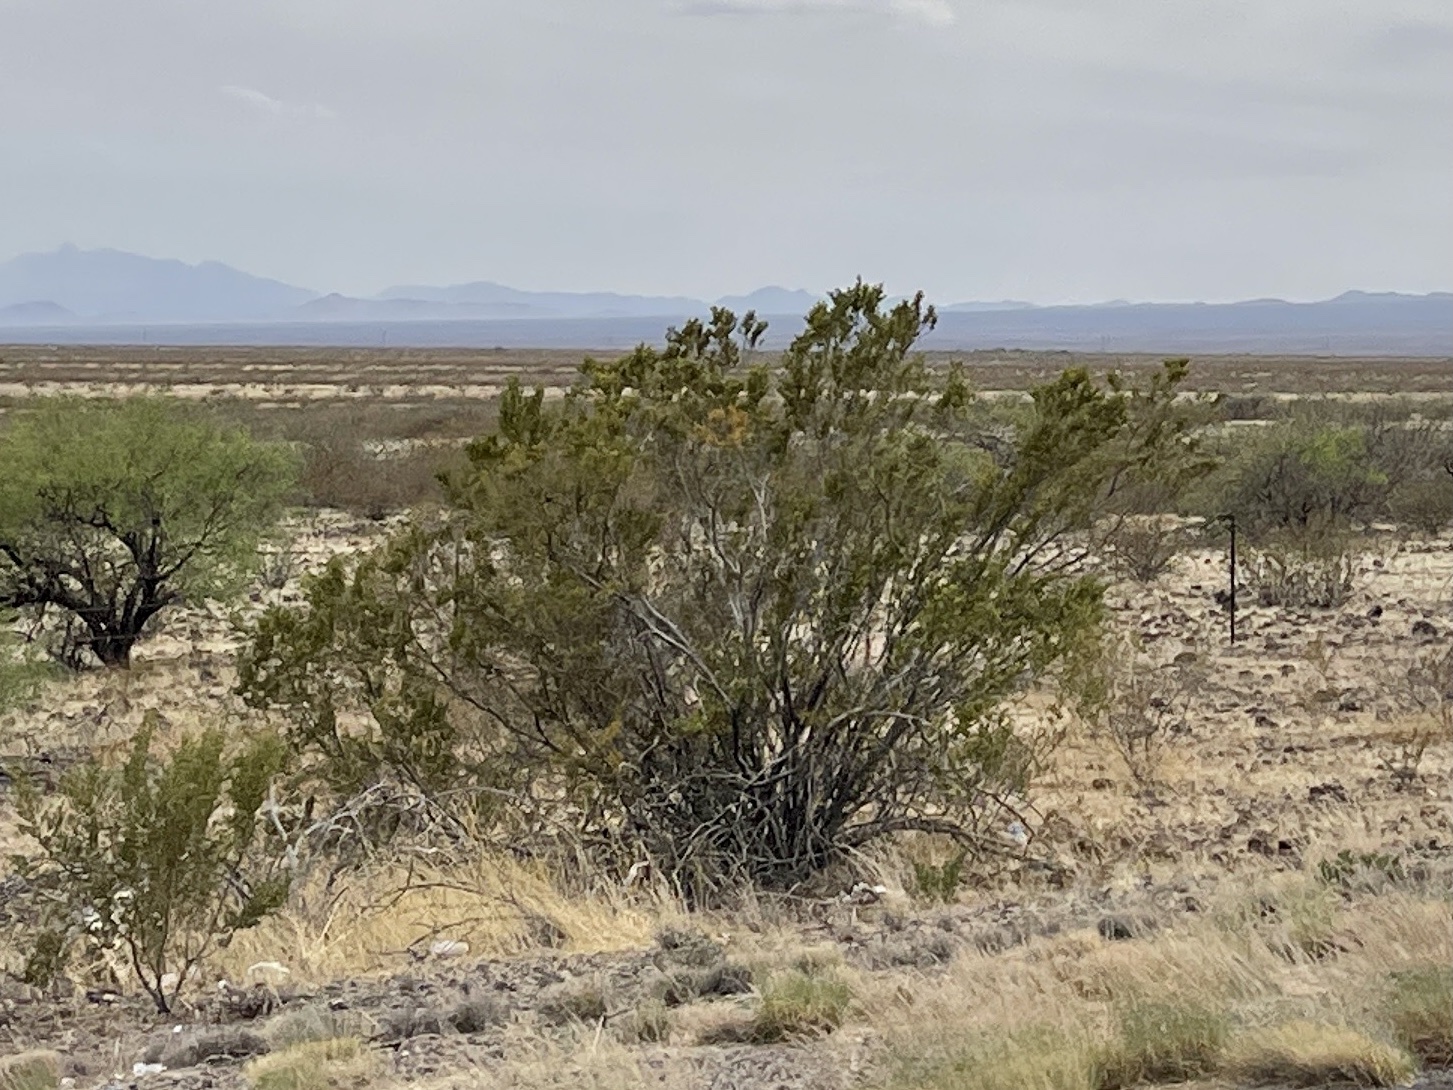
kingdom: Plantae
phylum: Tracheophyta
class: Magnoliopsida
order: Zygophyllales
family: Zygophyllaceae
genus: Larrea
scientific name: Larrea tridentata
